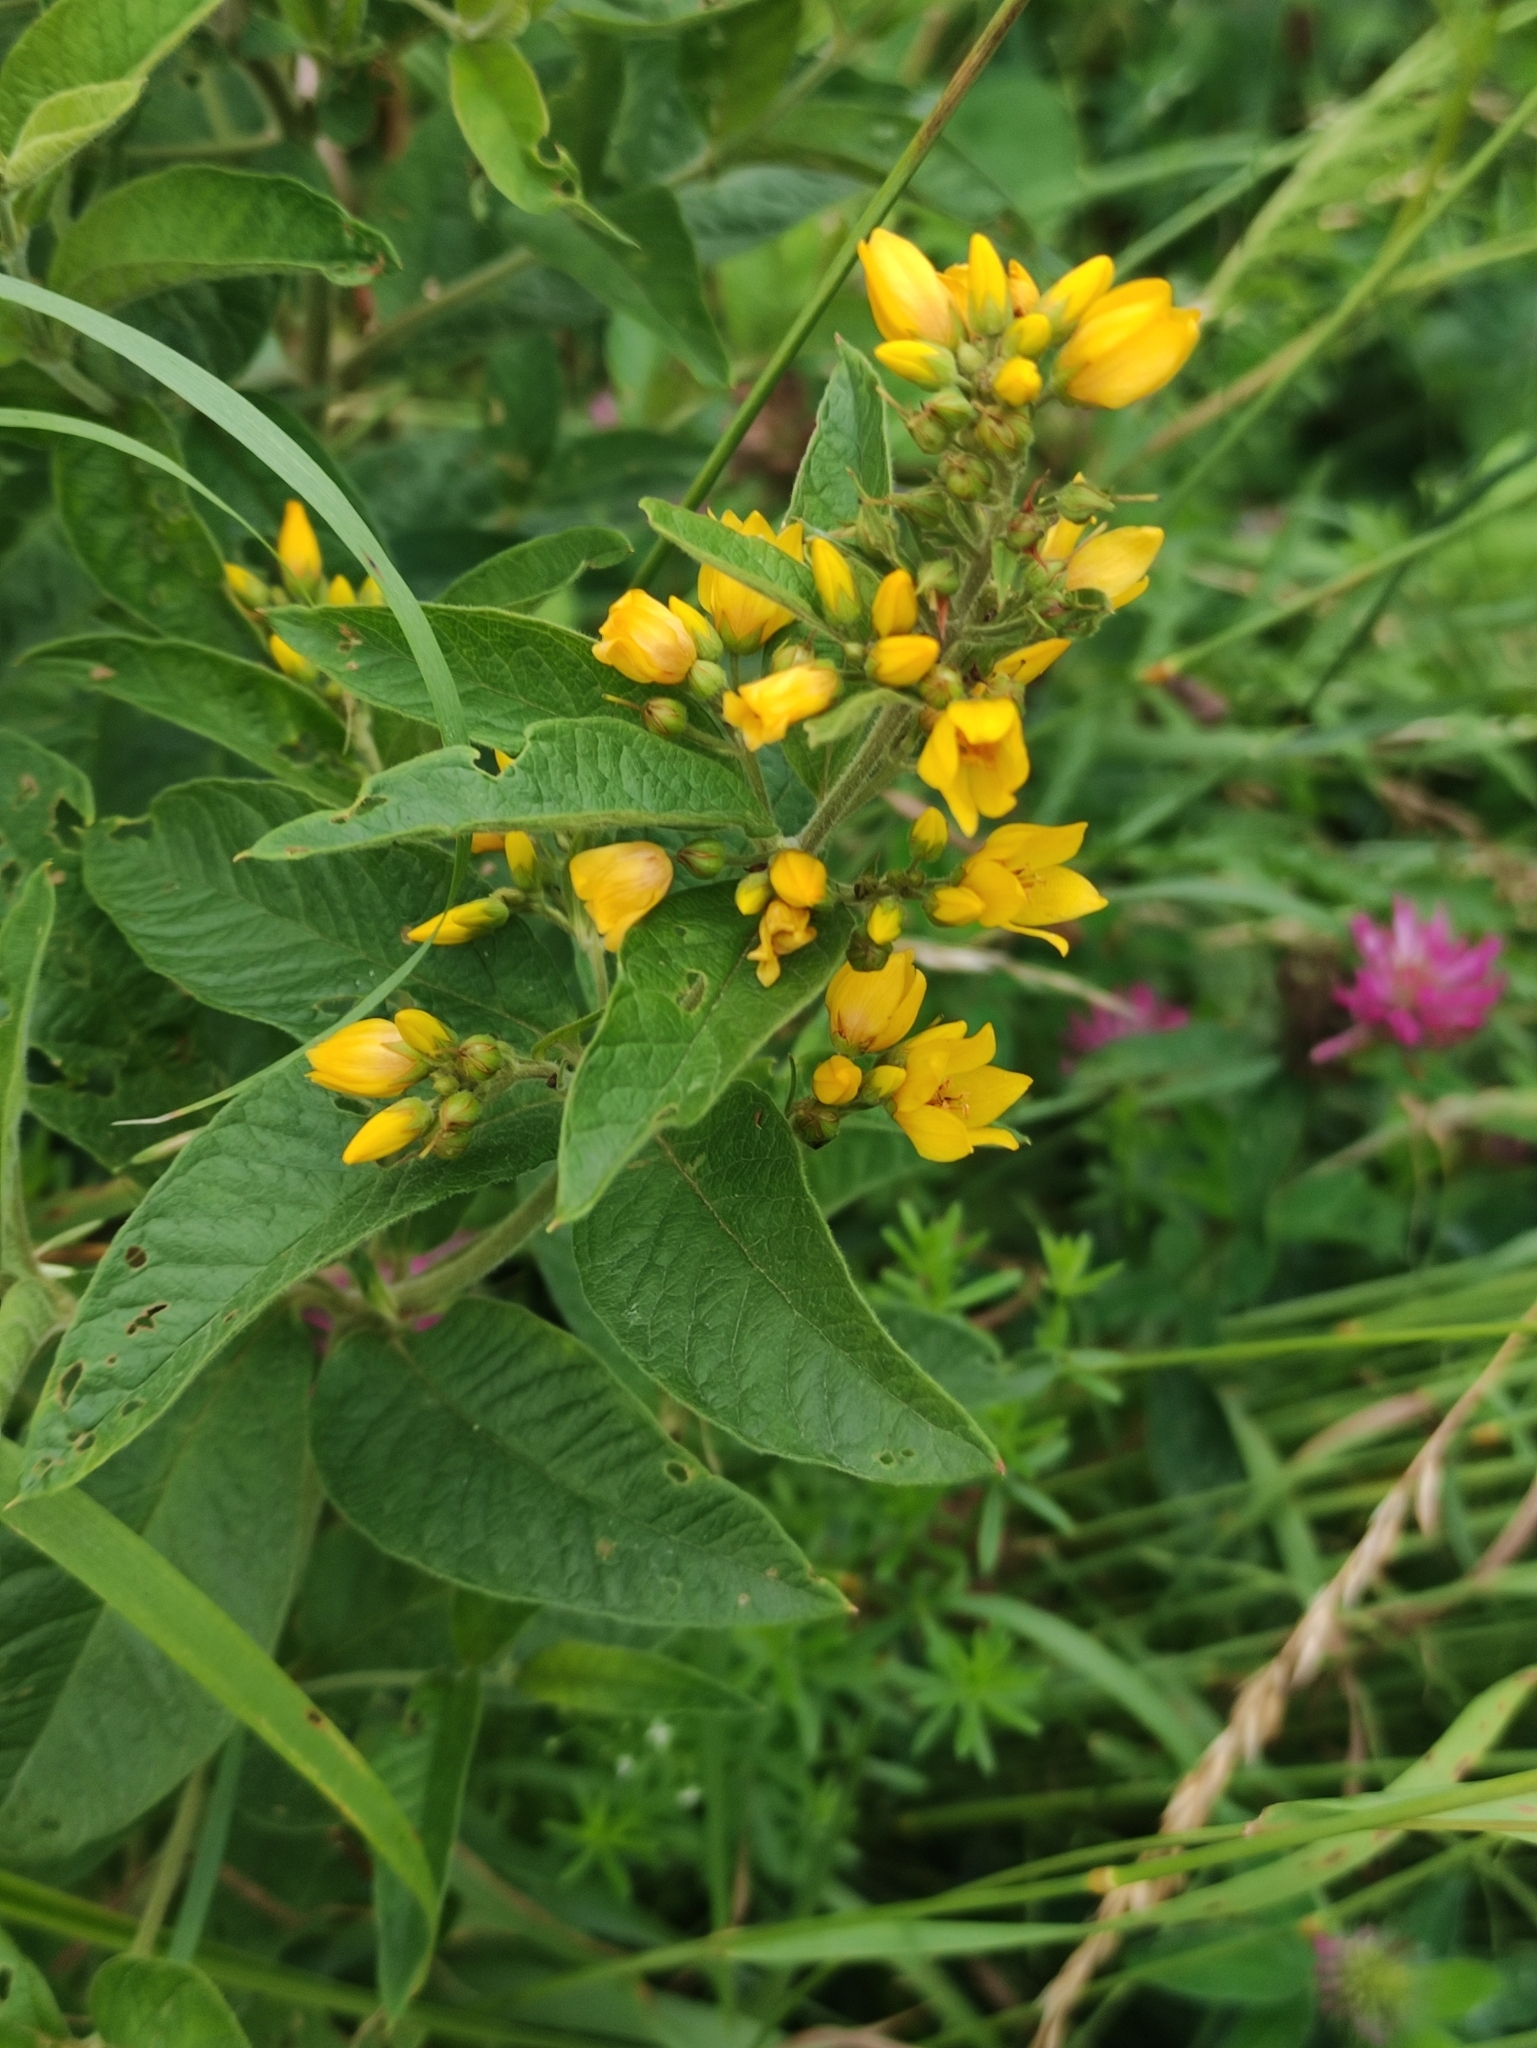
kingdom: Plantae
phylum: Tracheophyta
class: Magnoliopsida
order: Ericales
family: Primulaceae
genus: Lysimachia
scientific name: Lysimachia vulgaris
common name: Yellow loosestrife
